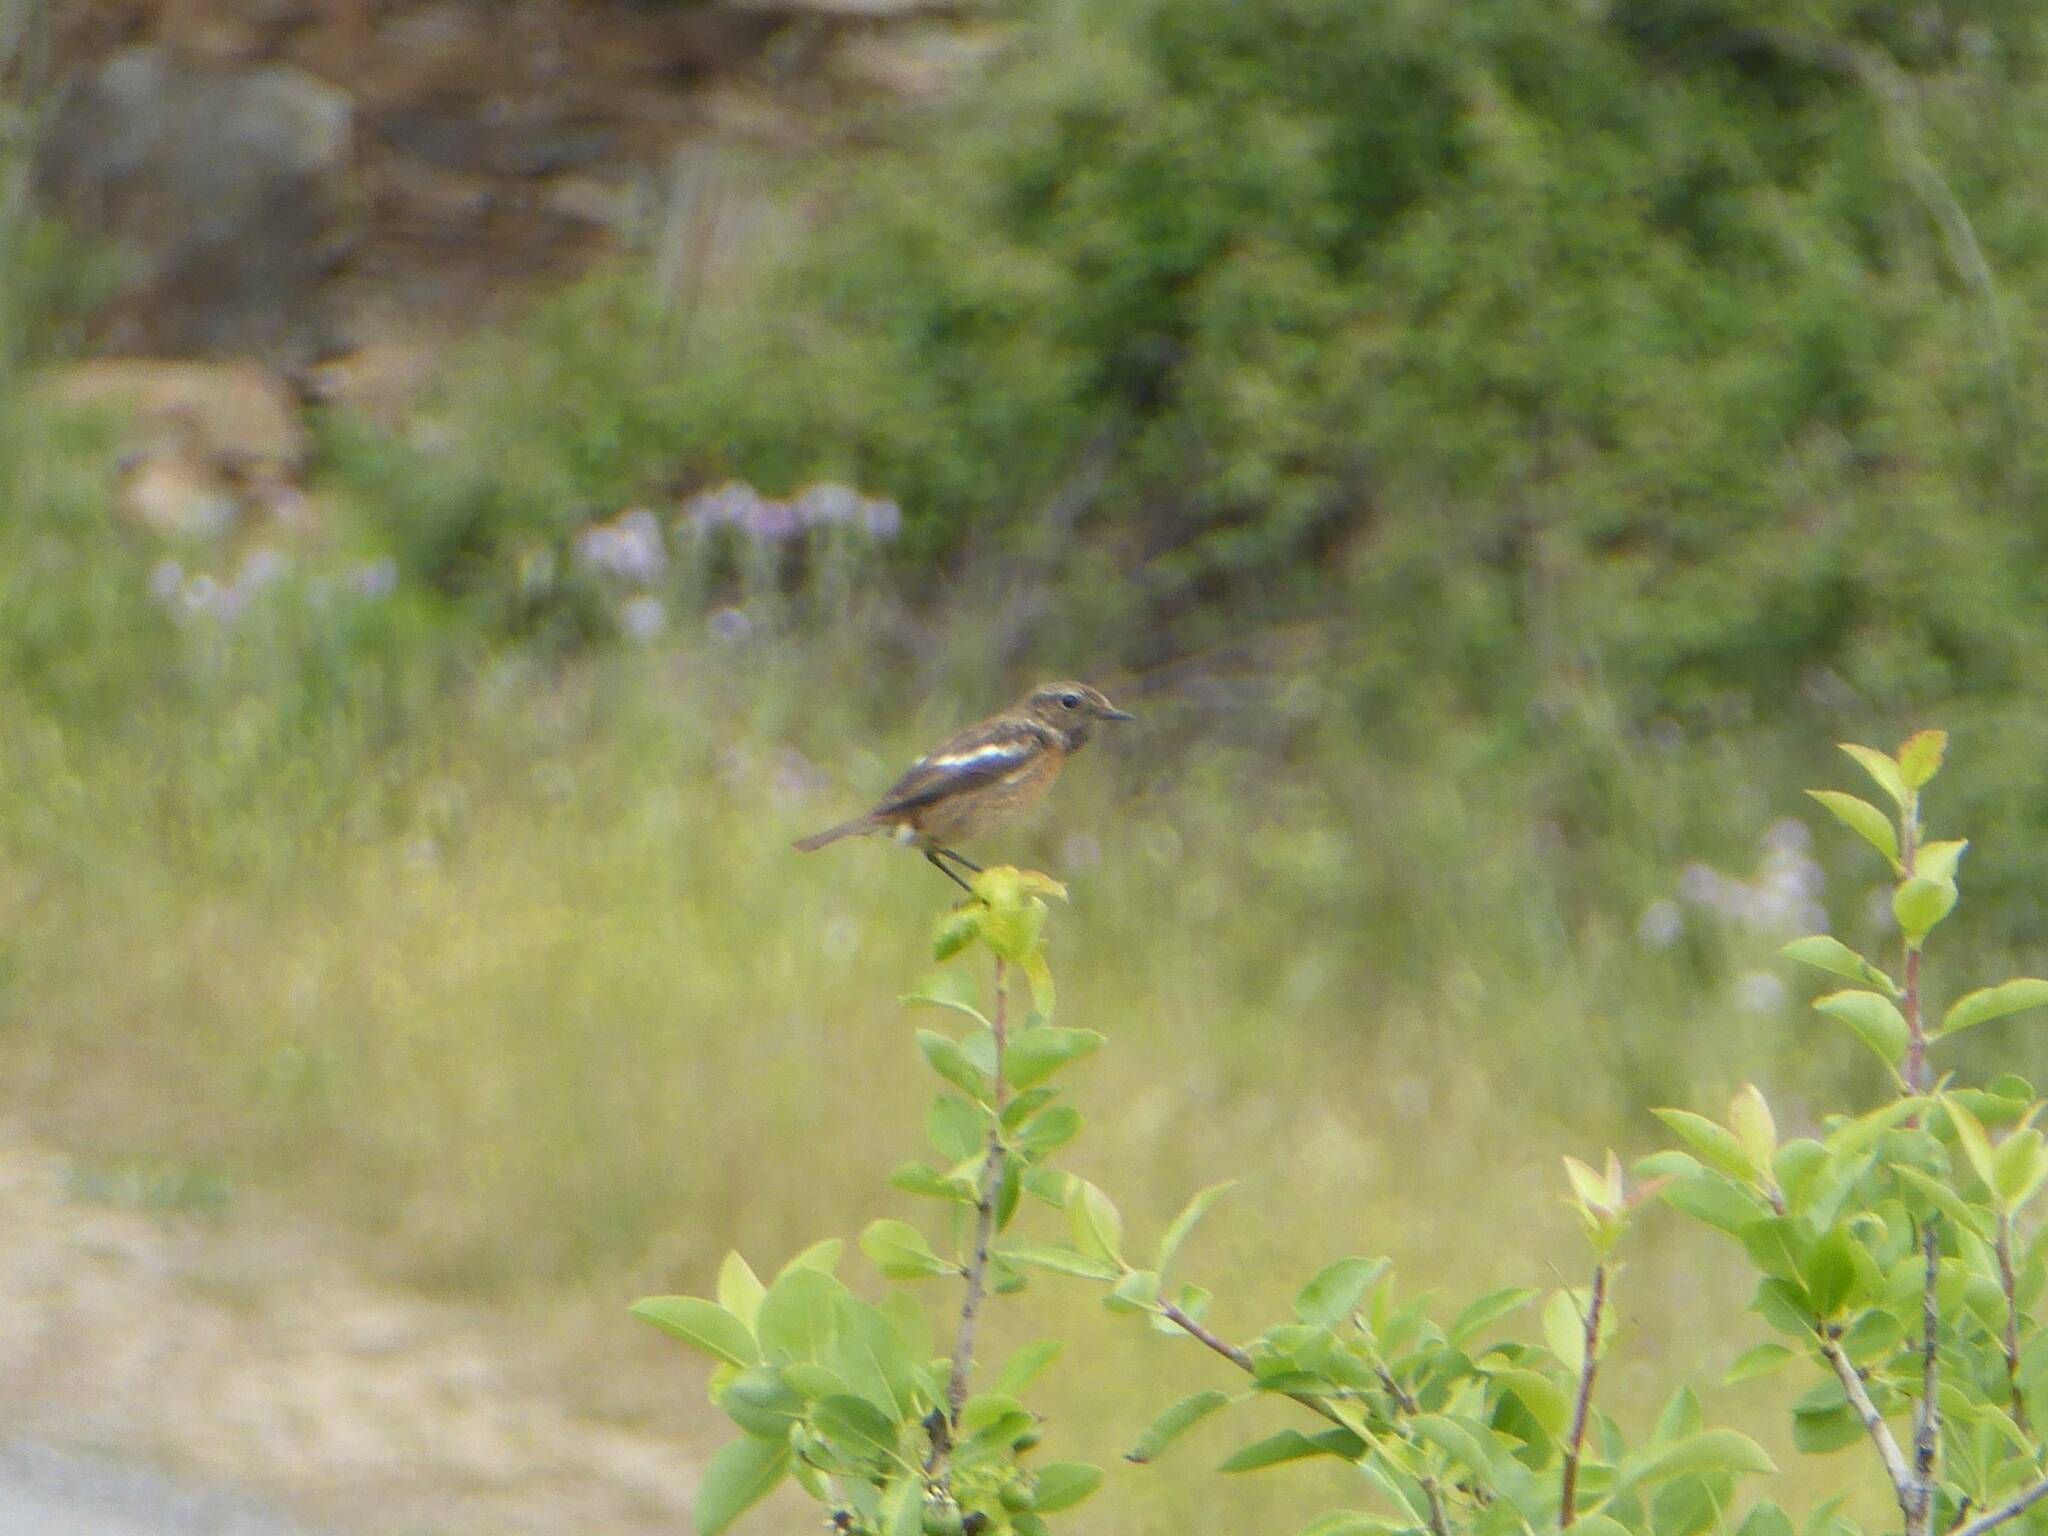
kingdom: Animalia
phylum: Chordata
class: Aves
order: Passeriformes
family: Muscicapidae
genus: Saxicola
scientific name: Saxicola rubicola
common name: European stonechat
